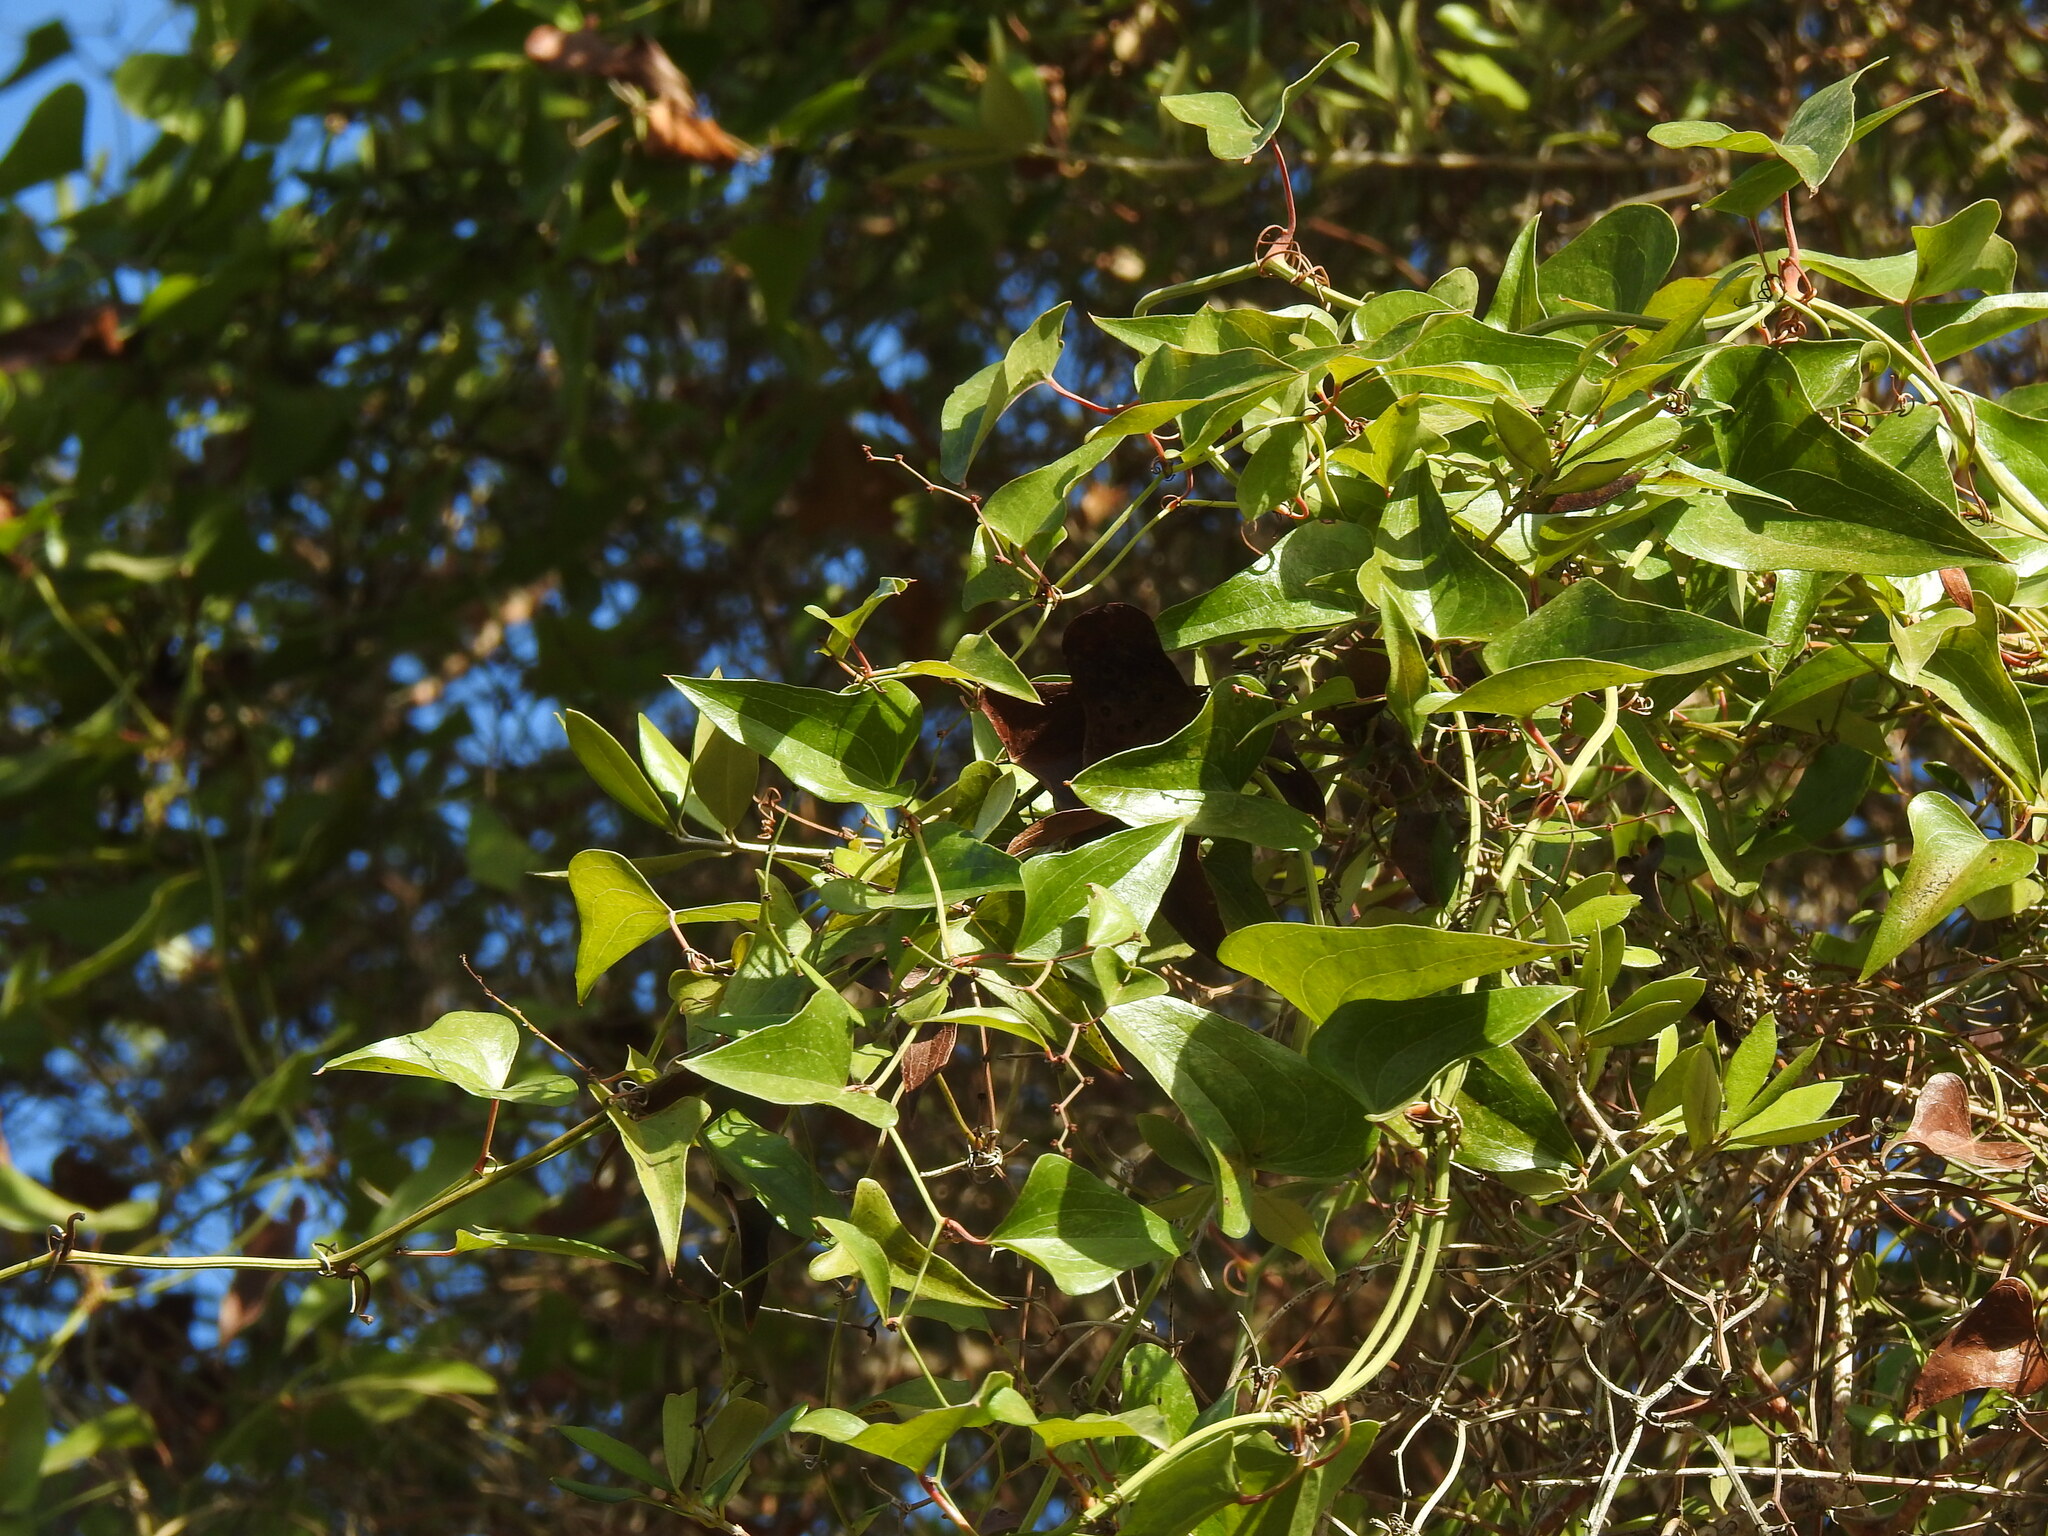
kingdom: Plantae
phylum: Tracheophyta
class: Liliopsida
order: Liliales
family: Smilacaceae
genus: Smilax
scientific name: Smilax aspera
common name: Common smilax
